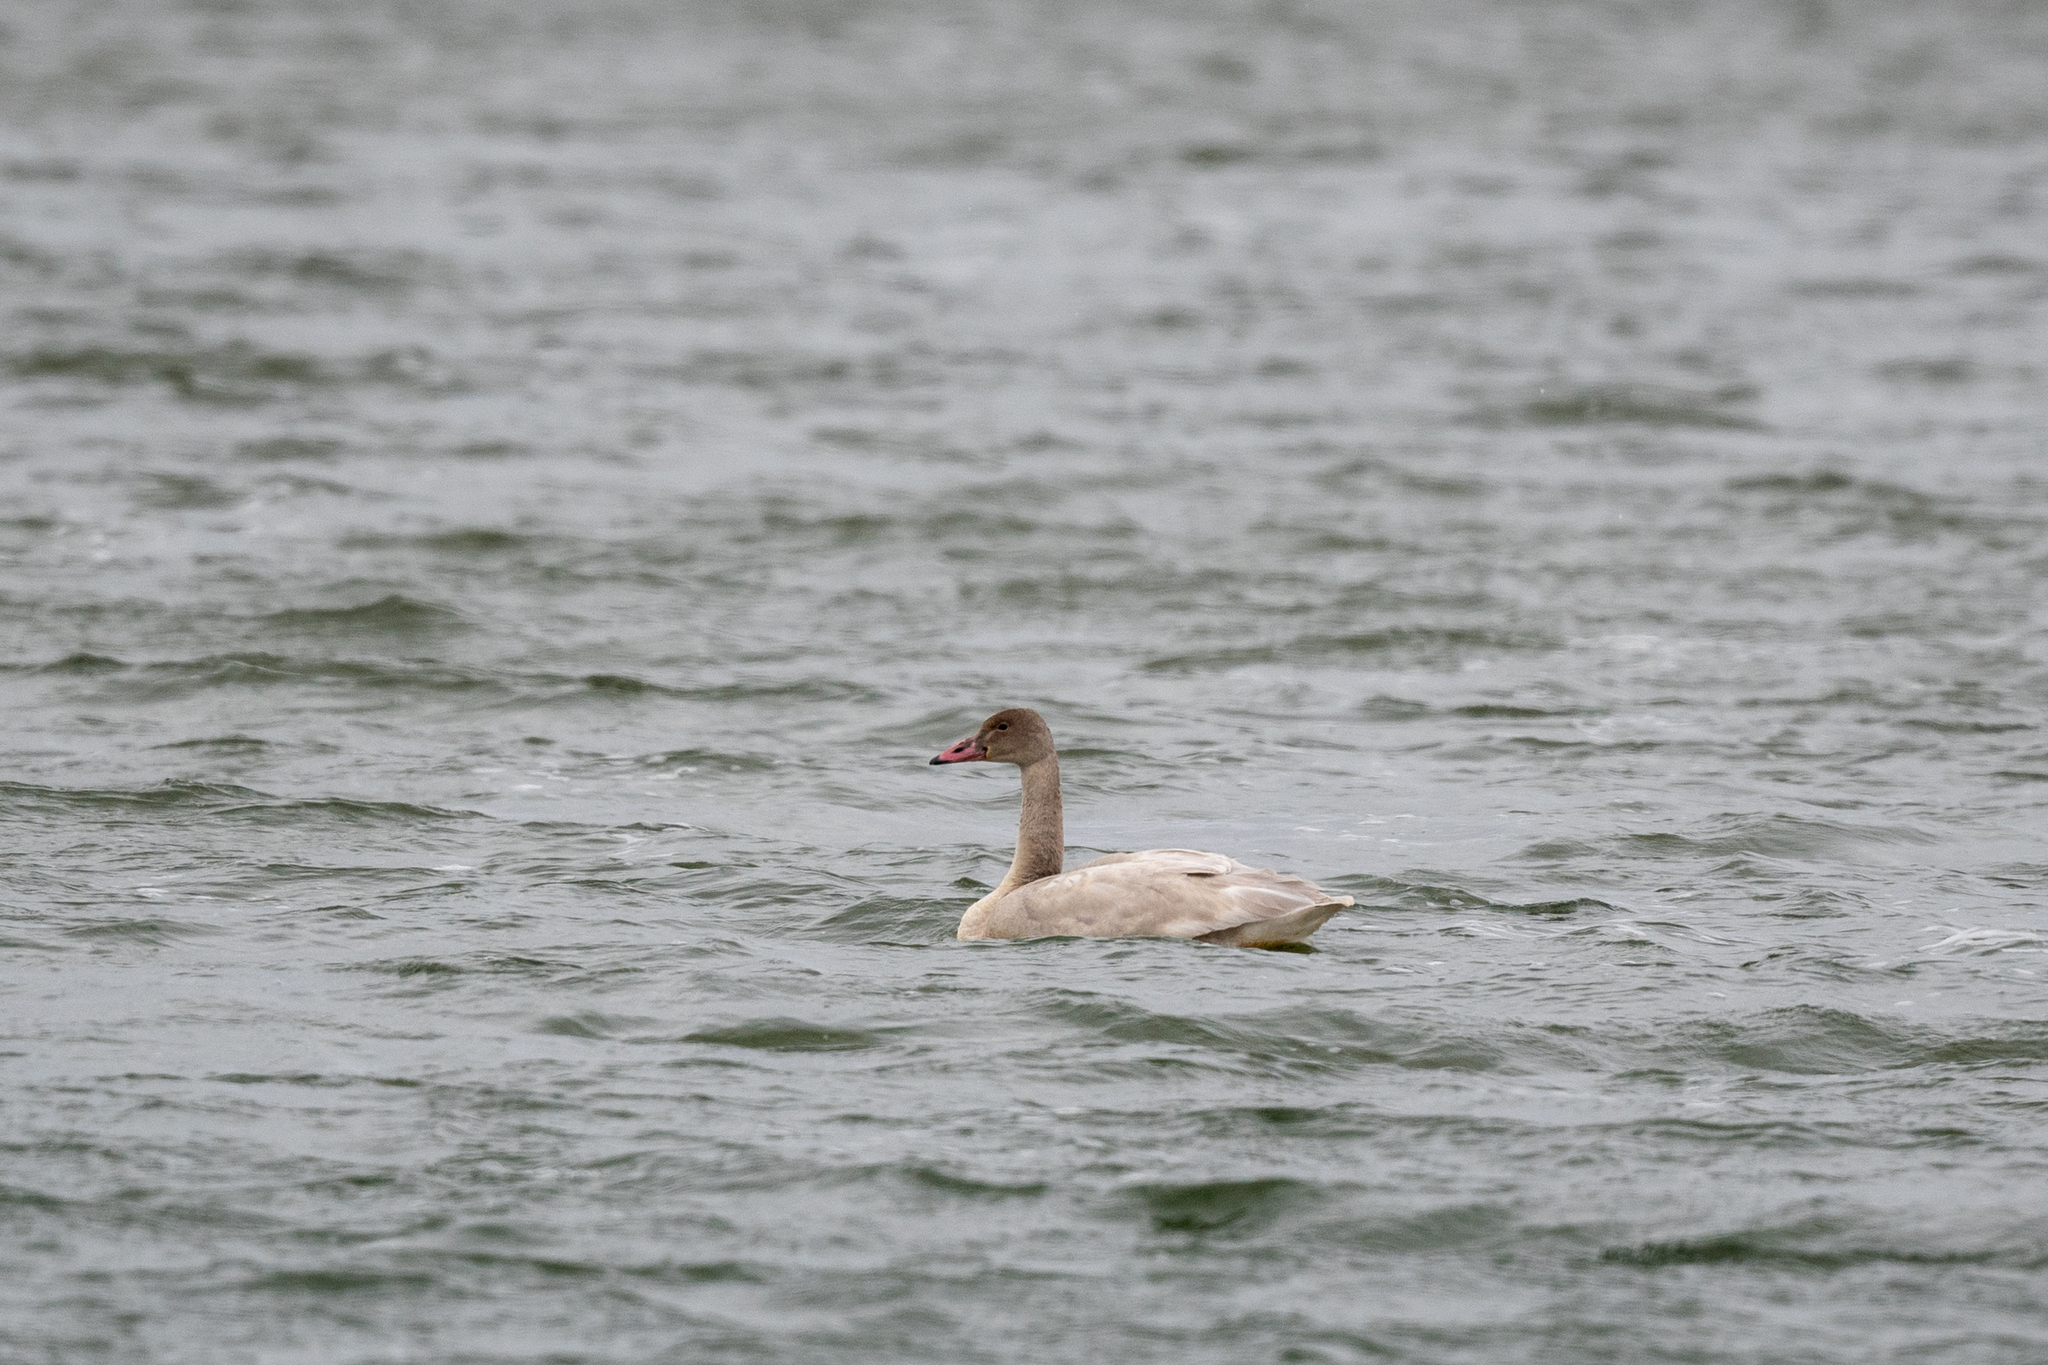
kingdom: Animalia
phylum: Chordata
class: Aves
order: Anseriformes
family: Anatidae
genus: Cygnus
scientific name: Cygnus columbianus
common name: Tundra swan
